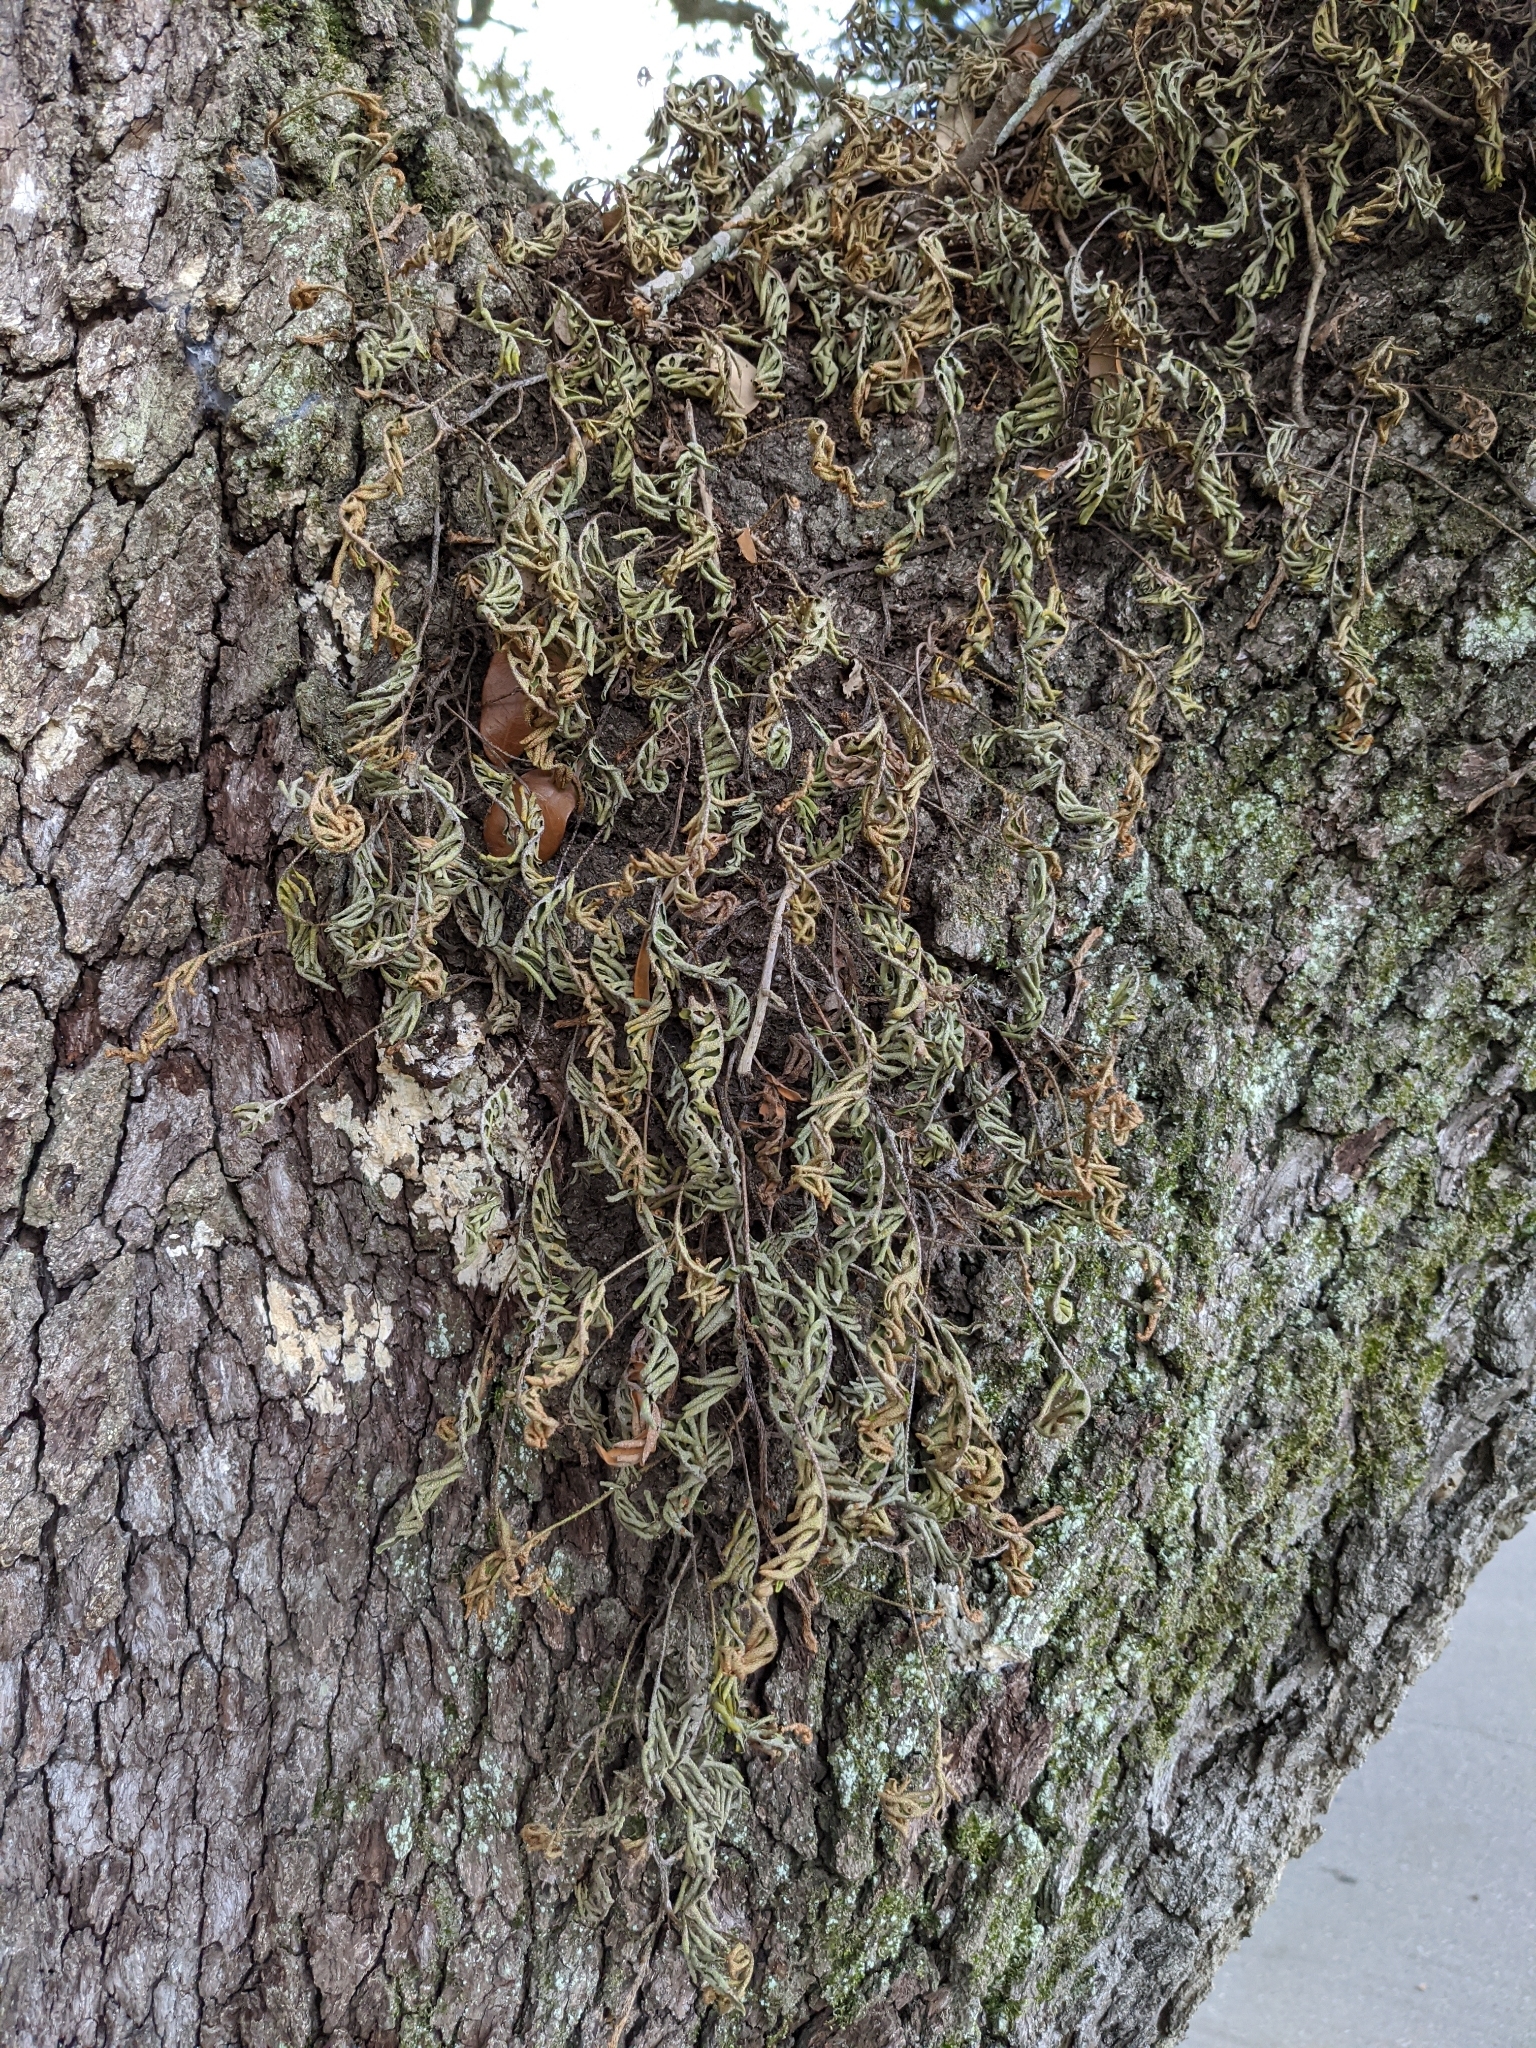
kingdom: Plantae
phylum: Tracheophyta
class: Polypodiopsida
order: Polypodiales
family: Polypodiaceae
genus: Pleopeltis
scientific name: Pleopeltis michauxiana
